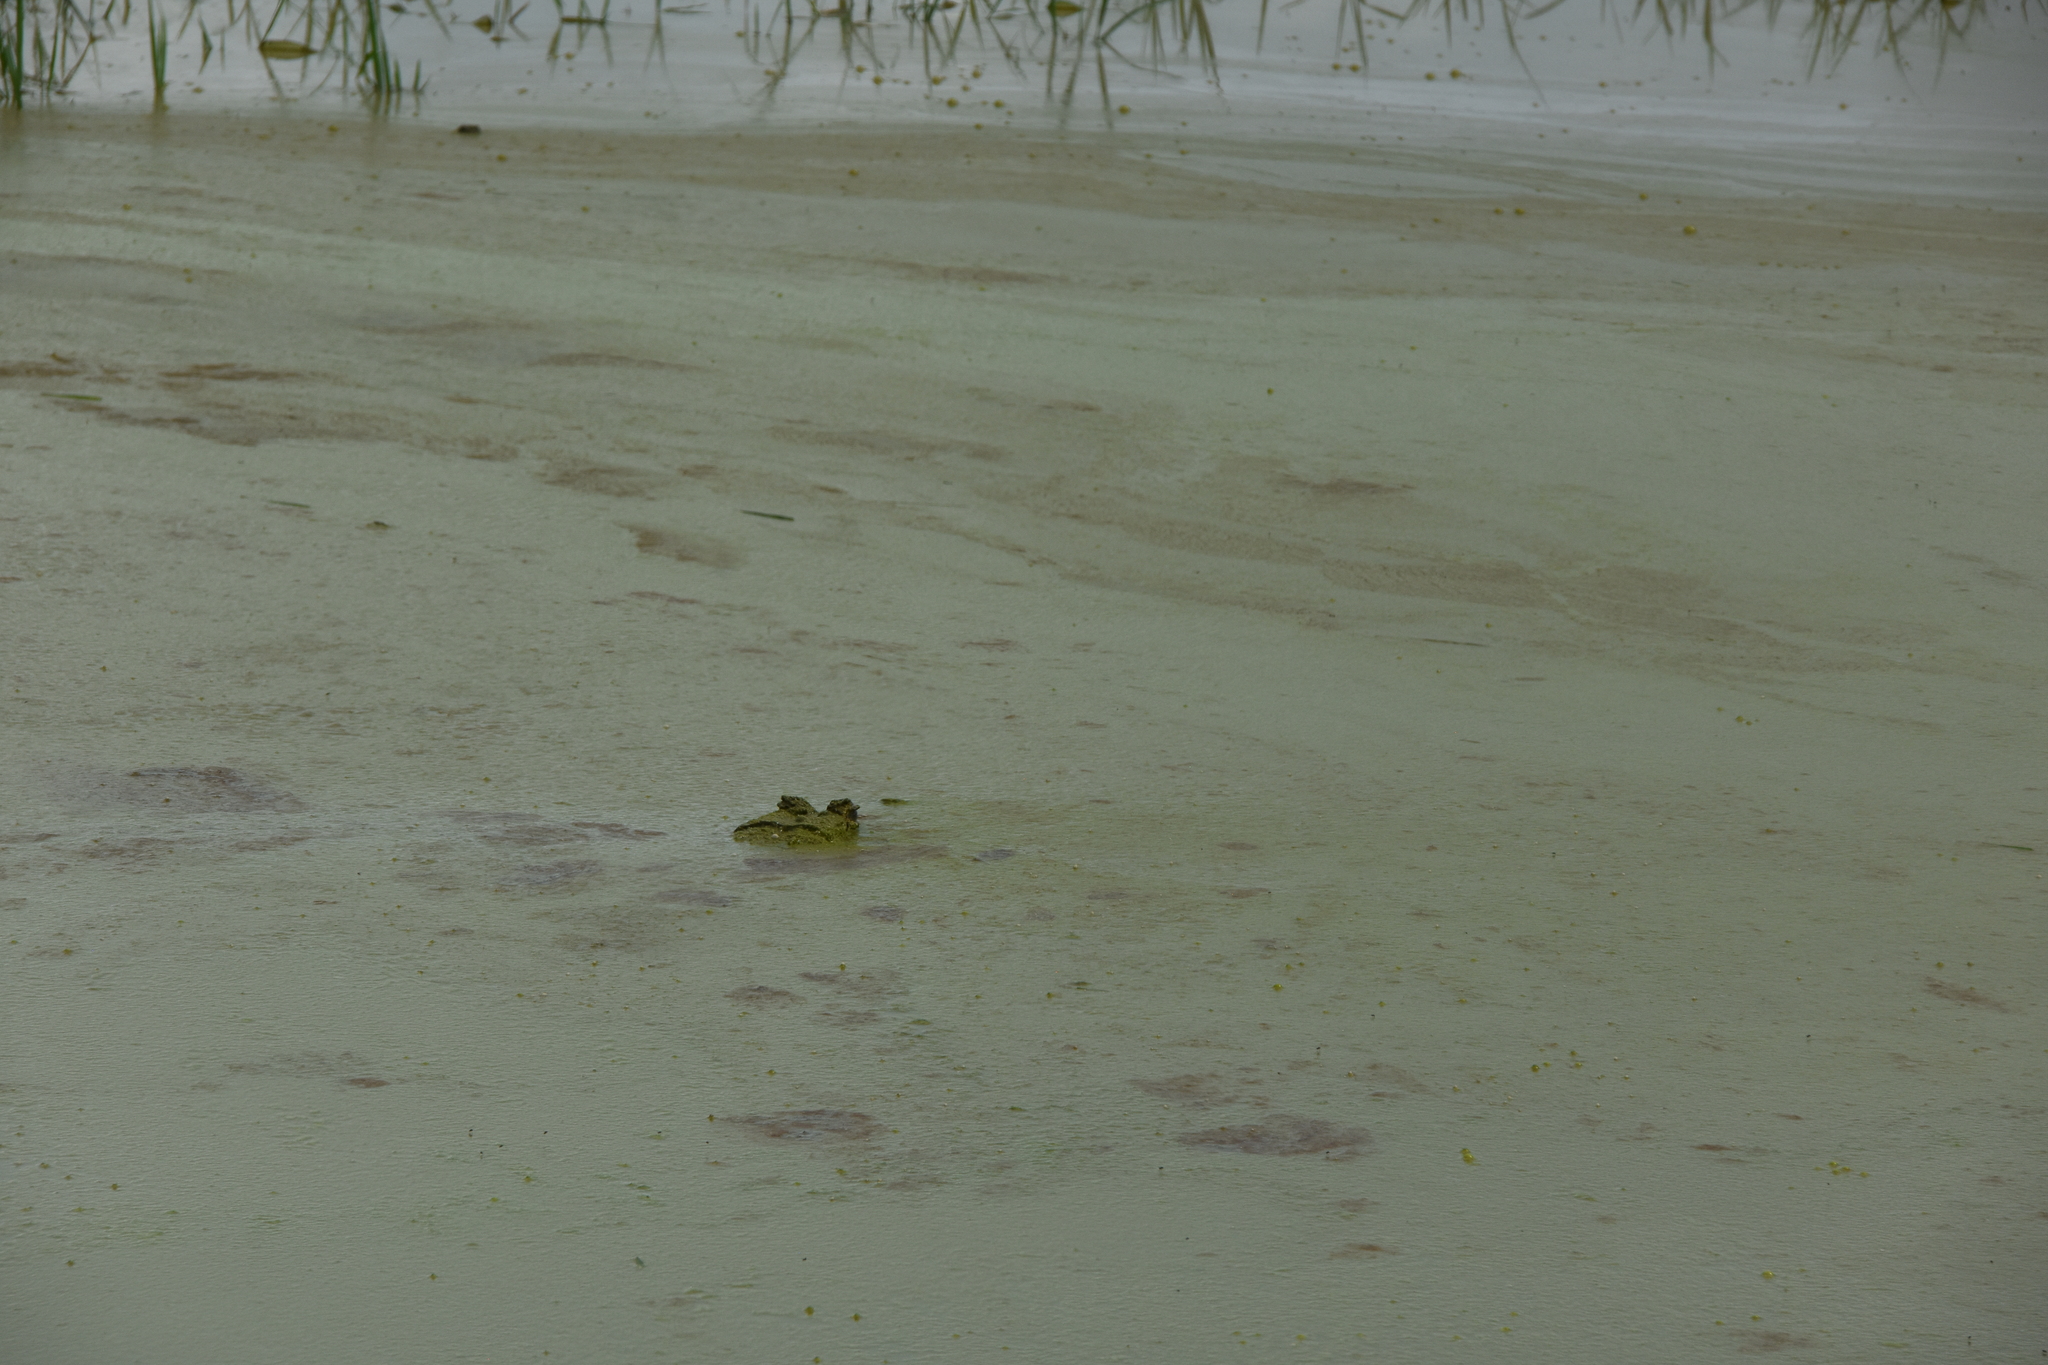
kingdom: Animalia
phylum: Chordata
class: Crocodylia
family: Alligatoridae
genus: Caiman
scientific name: Caiman crocodilus
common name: Common caiman
